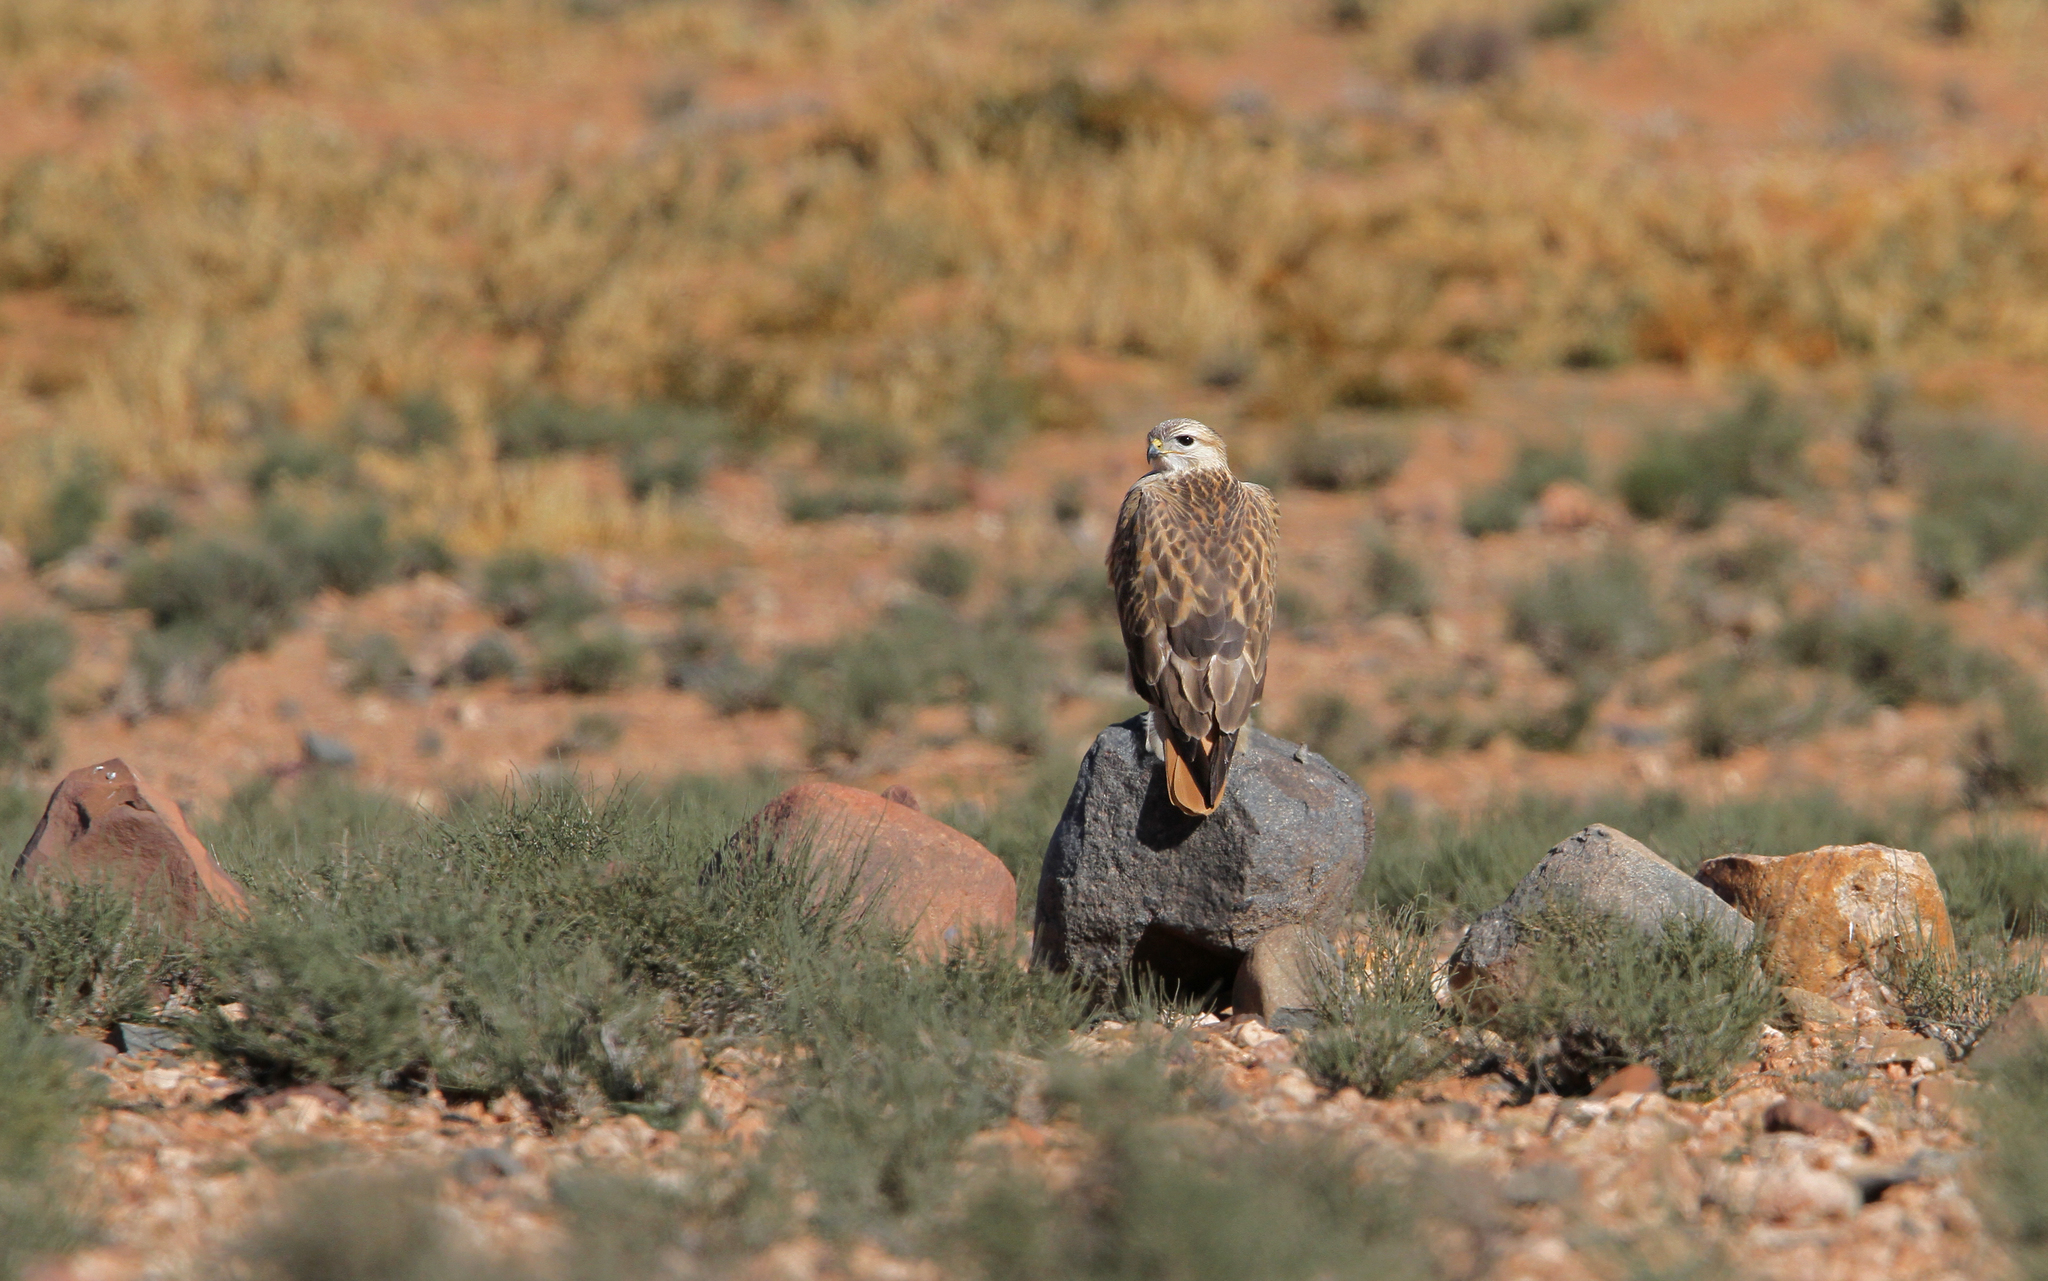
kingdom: Animalia
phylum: Chordata
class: Aves
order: Accipitriformes
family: Accipitridae
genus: Buteo
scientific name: Buteo rufinus
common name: Long-legged buzzard
